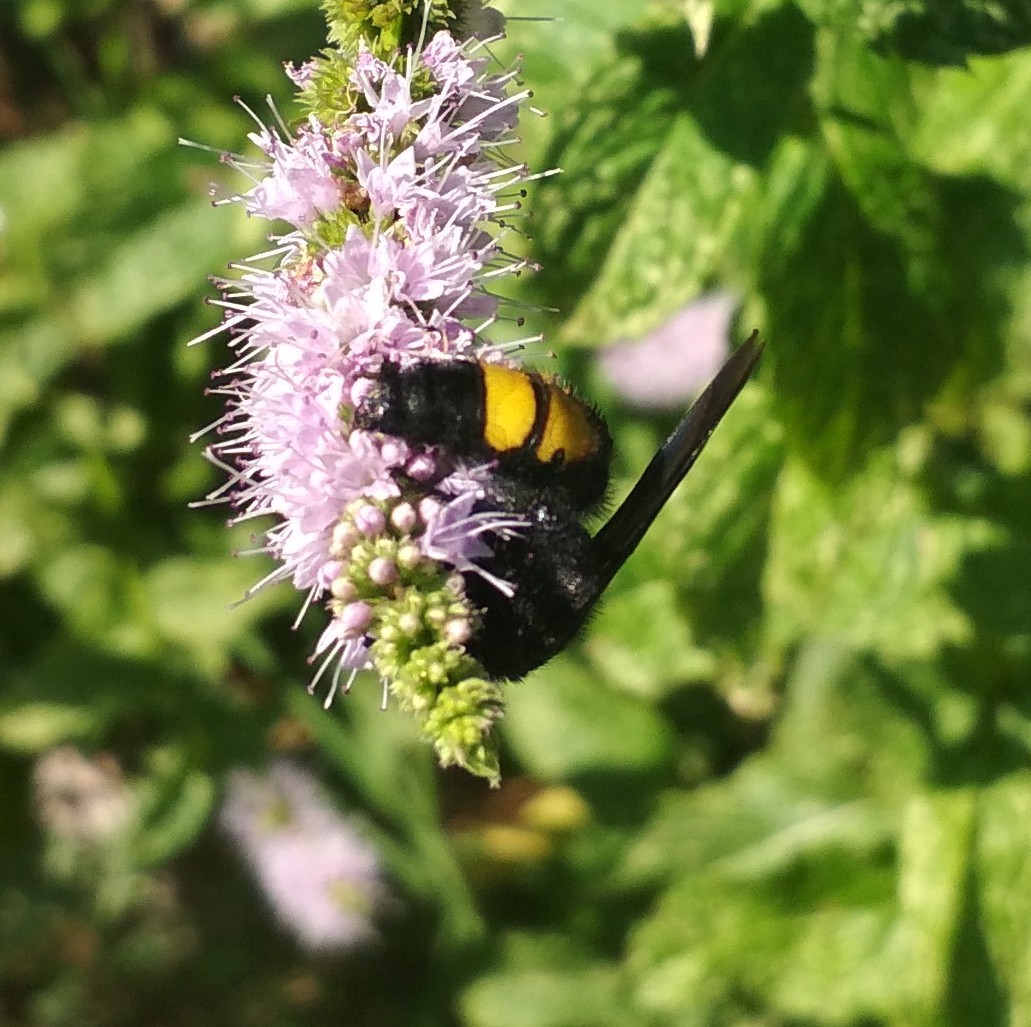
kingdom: Animalia
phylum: Arthropoda
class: Insecta
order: Hymenoptera
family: Scoliidae
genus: Scolia
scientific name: Scolia hirta
